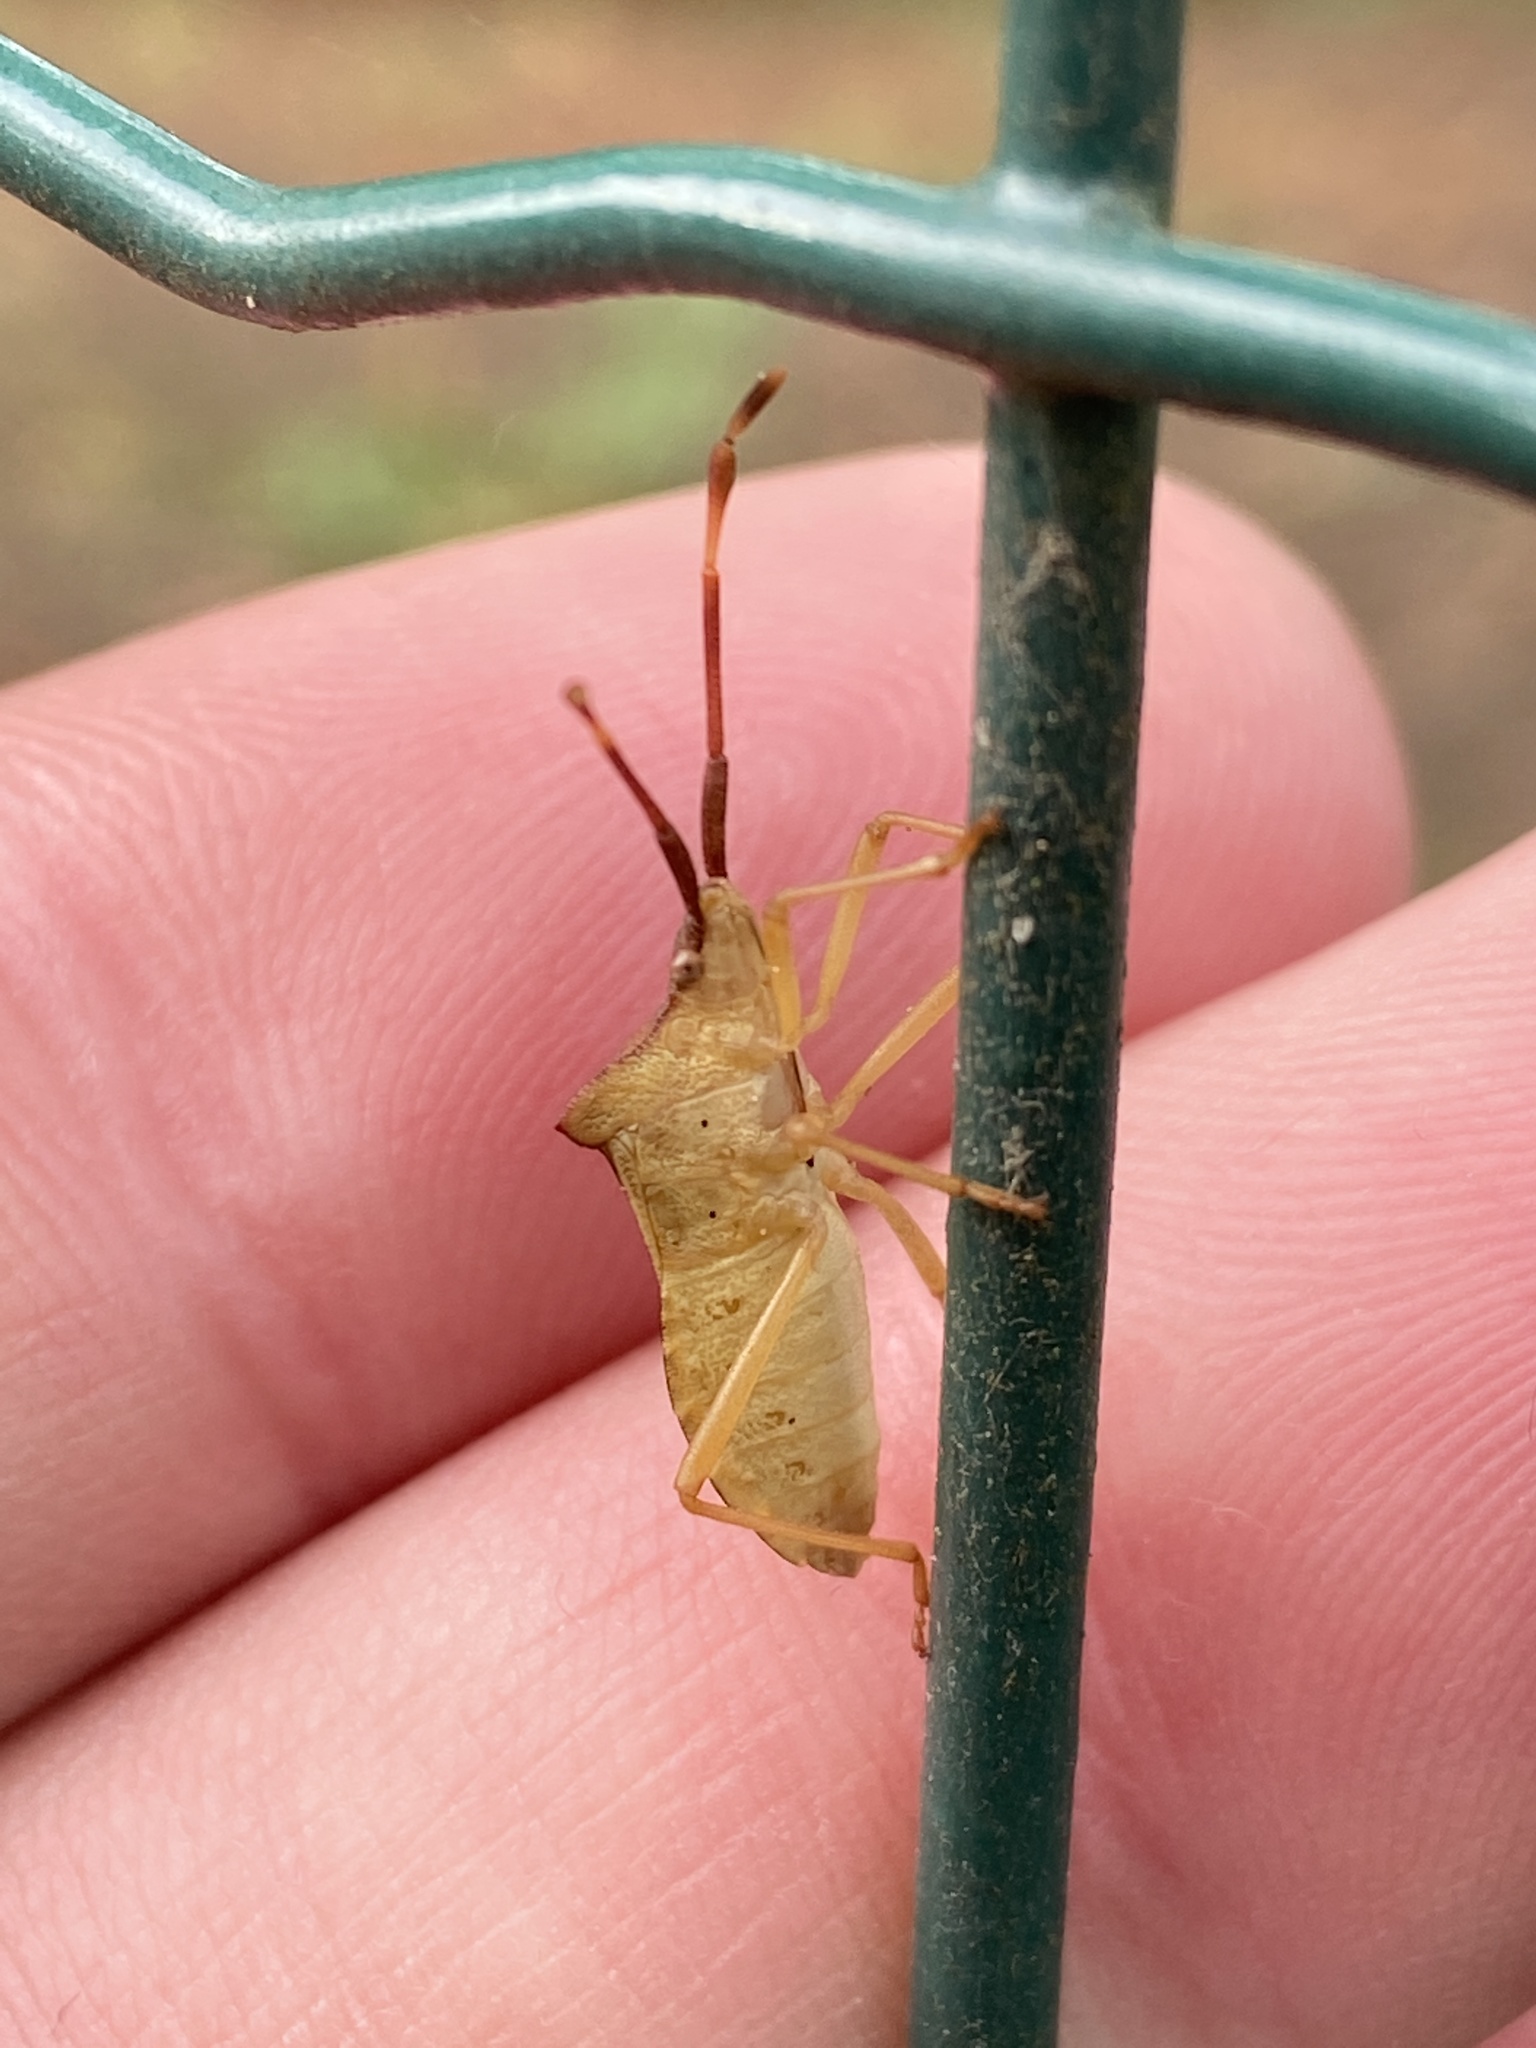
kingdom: Animalia
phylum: Arthropoda
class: Insecta
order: Hemiptera
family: Coreidae
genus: Gonocerus
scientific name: Gonocerus acuteangulatus
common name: Box bug
